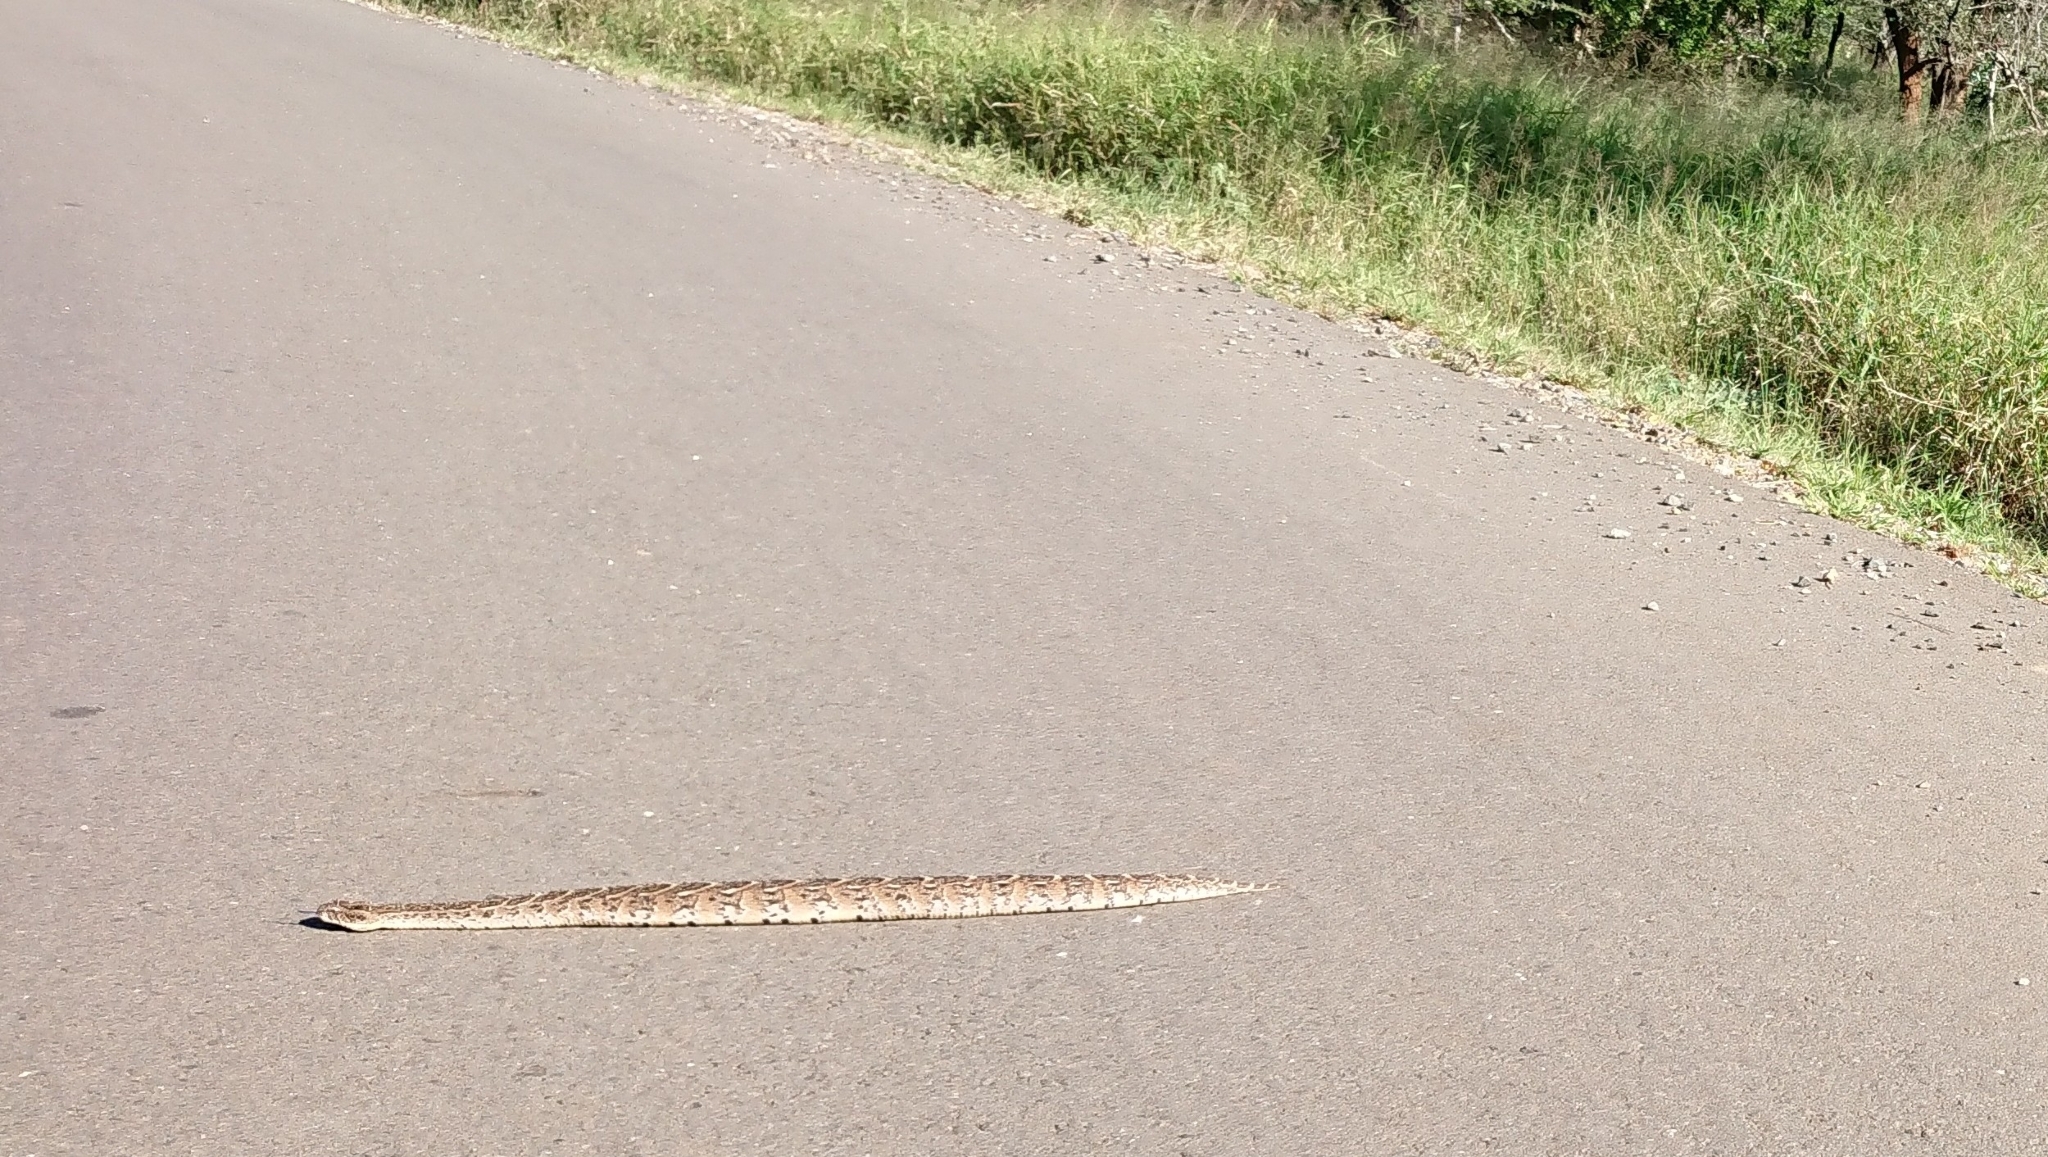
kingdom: Animalia
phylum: Chordata
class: Squamata
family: Viperidae
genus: Bitis
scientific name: Bitis arietans
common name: Puff adder
